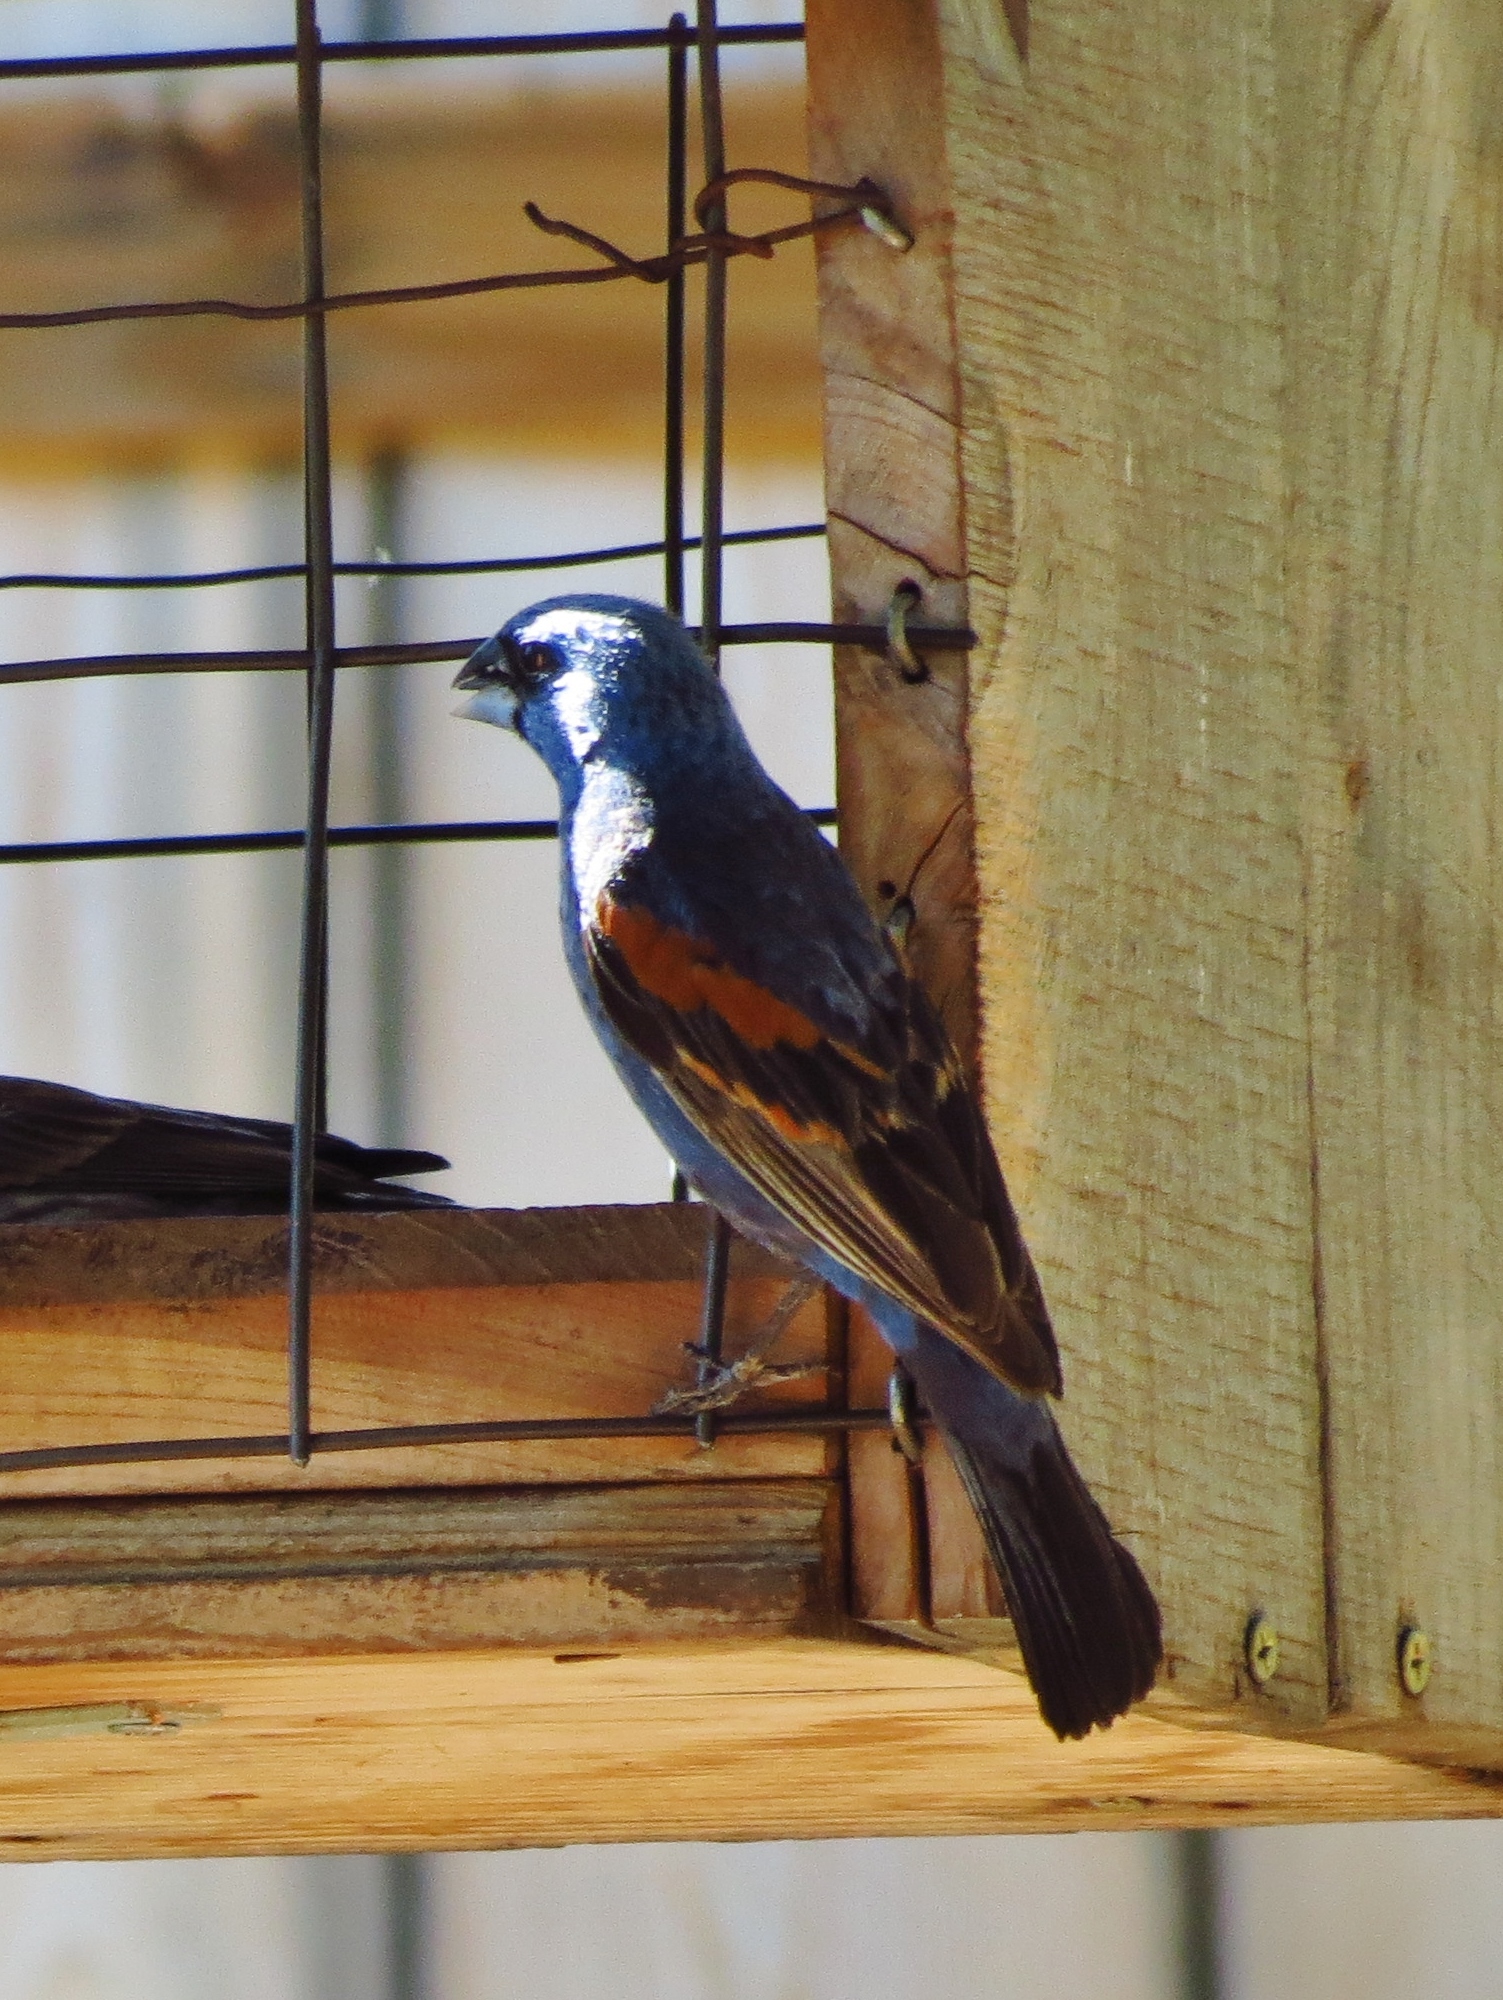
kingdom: Animalia
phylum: Chordata
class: Aves
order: Passeriformes
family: Cardinalidae
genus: Passerina
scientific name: Passerina caerulea
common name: Blue grosbeak
